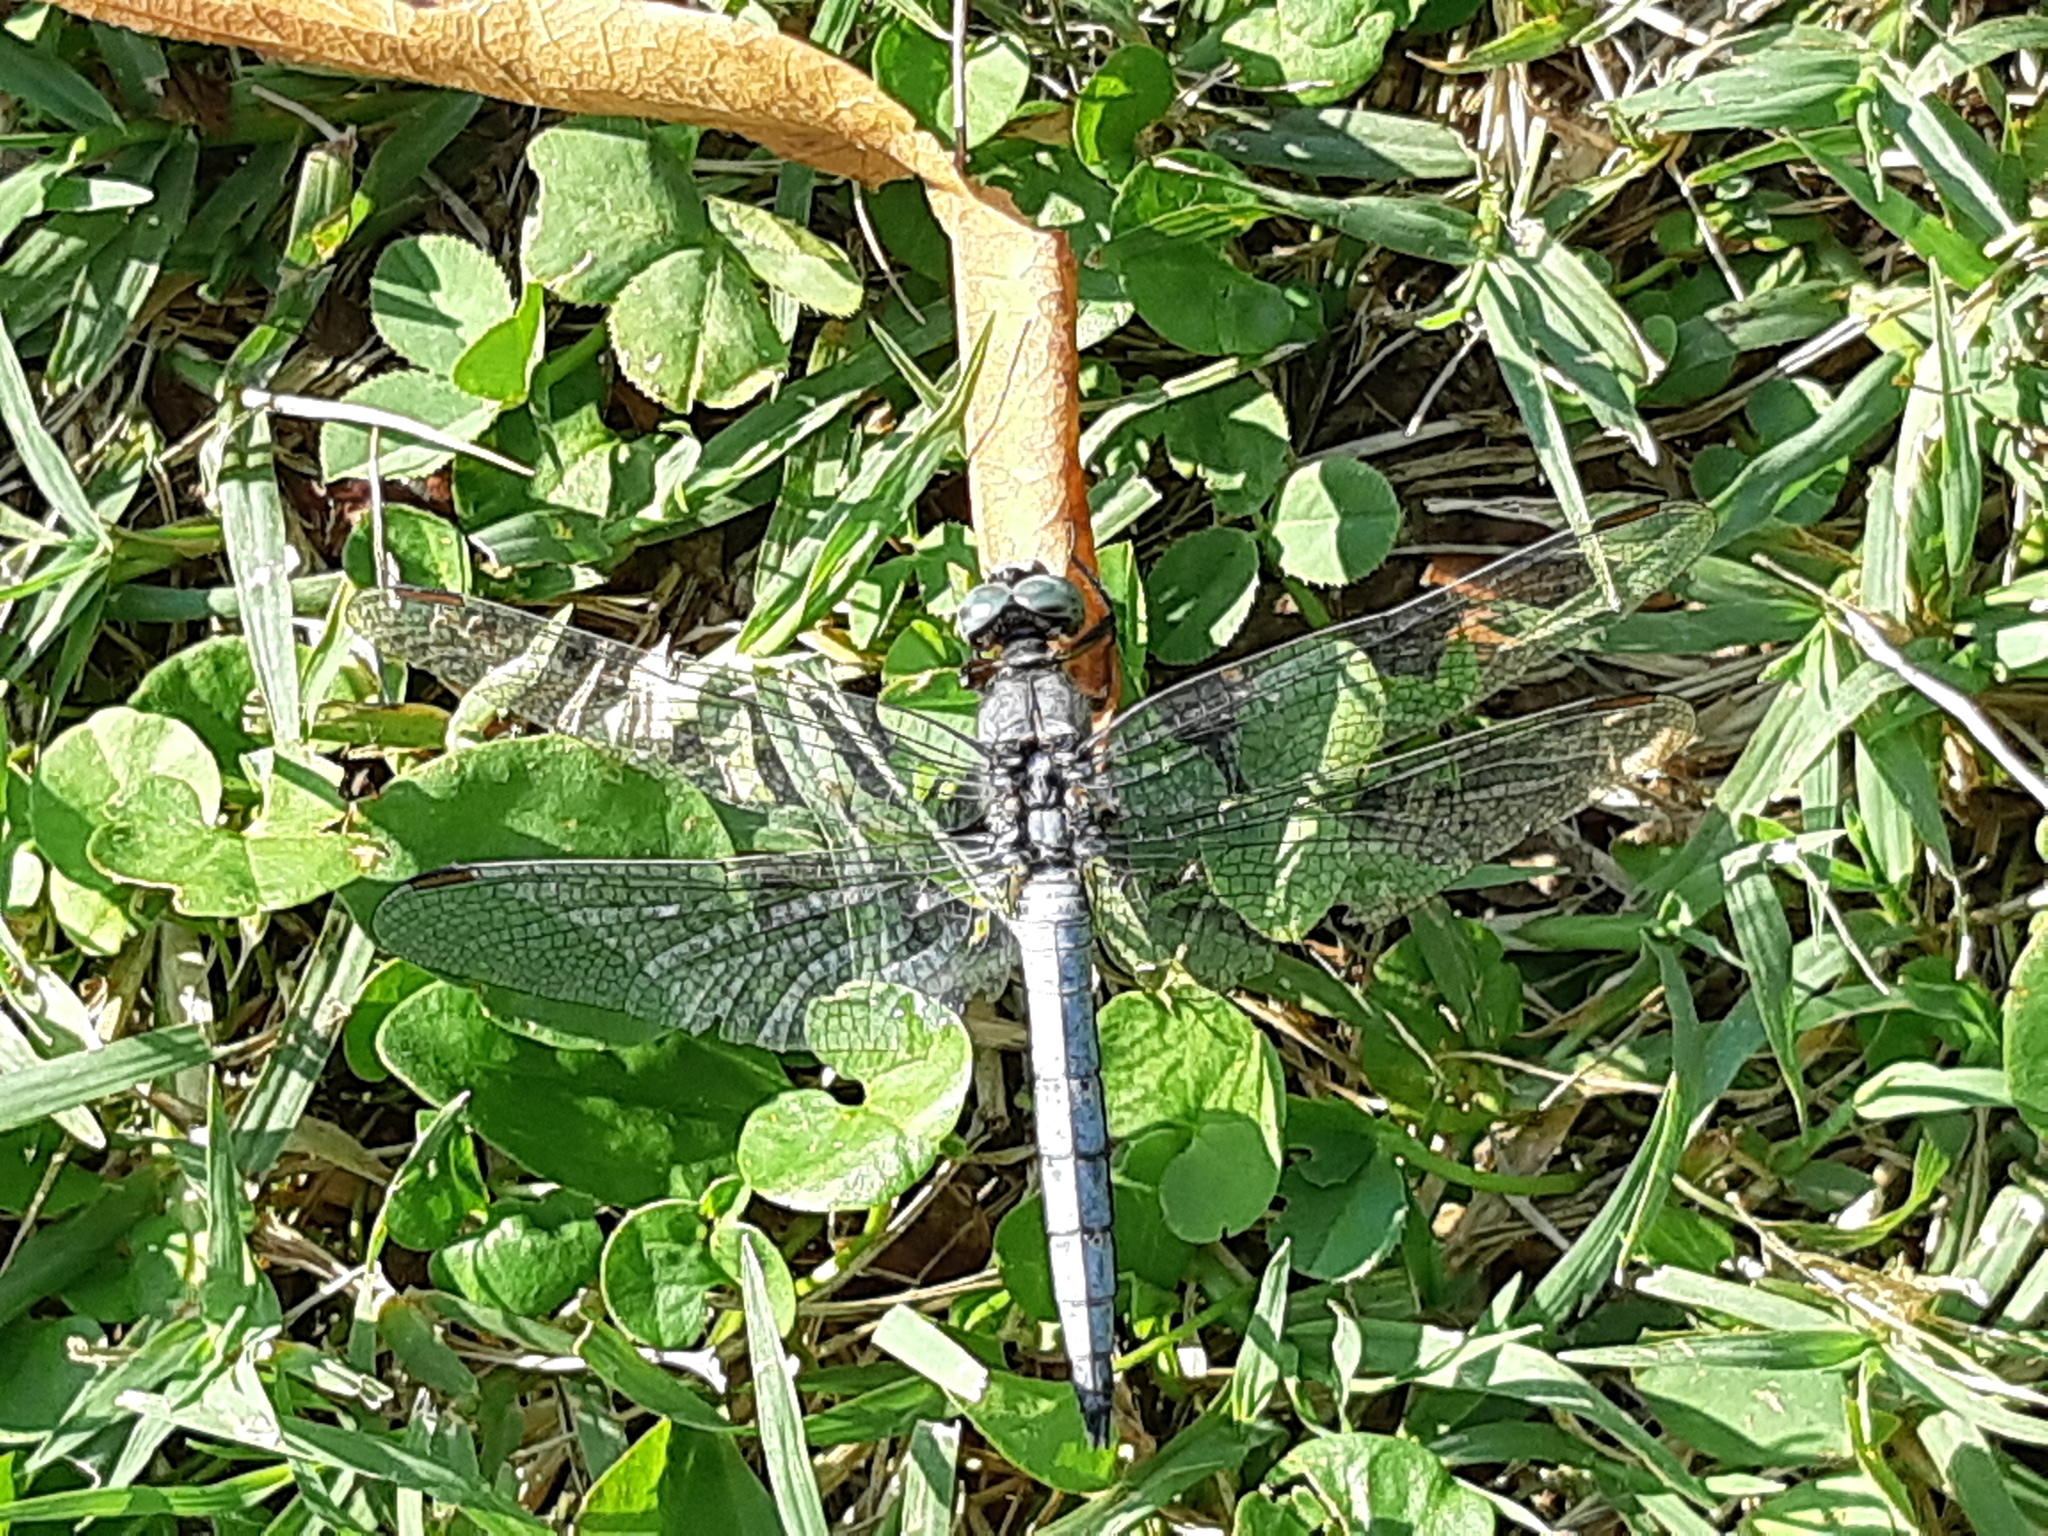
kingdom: Animalia
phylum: Arthropoda
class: Insecta
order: Odonata
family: Libellulidae
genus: Orthetrum
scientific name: Orthetrum coerulescens
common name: Keeled skimmer
